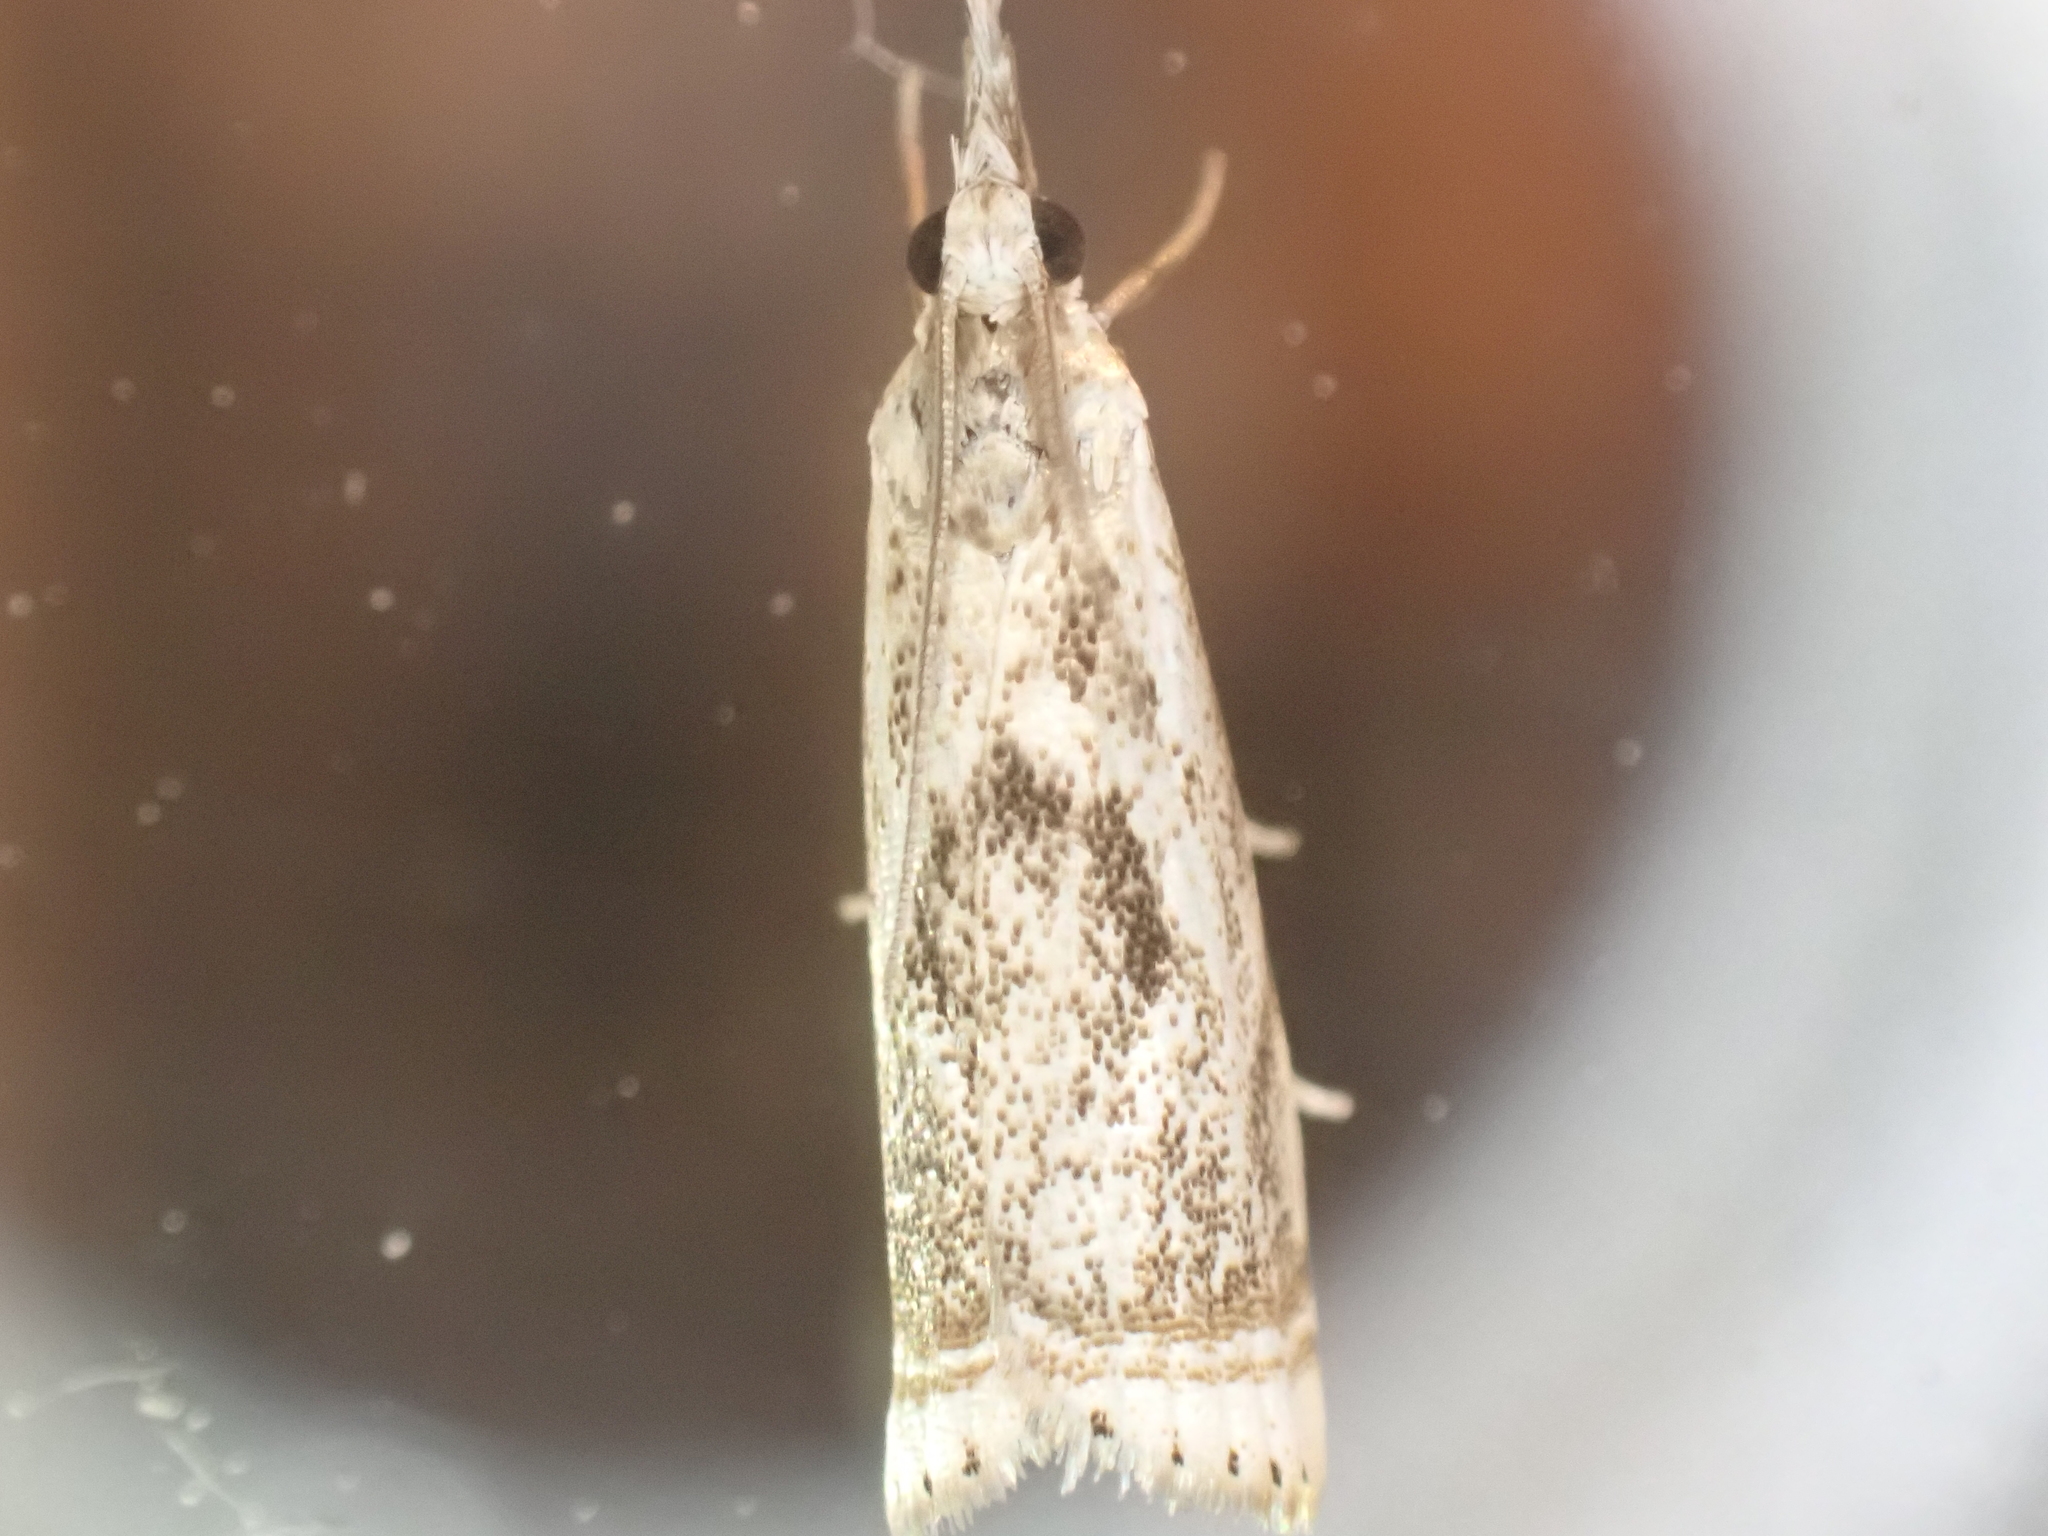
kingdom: Animalia
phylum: Arthropoda
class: Insecta
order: Lepidoptera
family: Crambidae
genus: Microcrambus
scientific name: Microcrambus elegans
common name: Elegant grass-veneer
